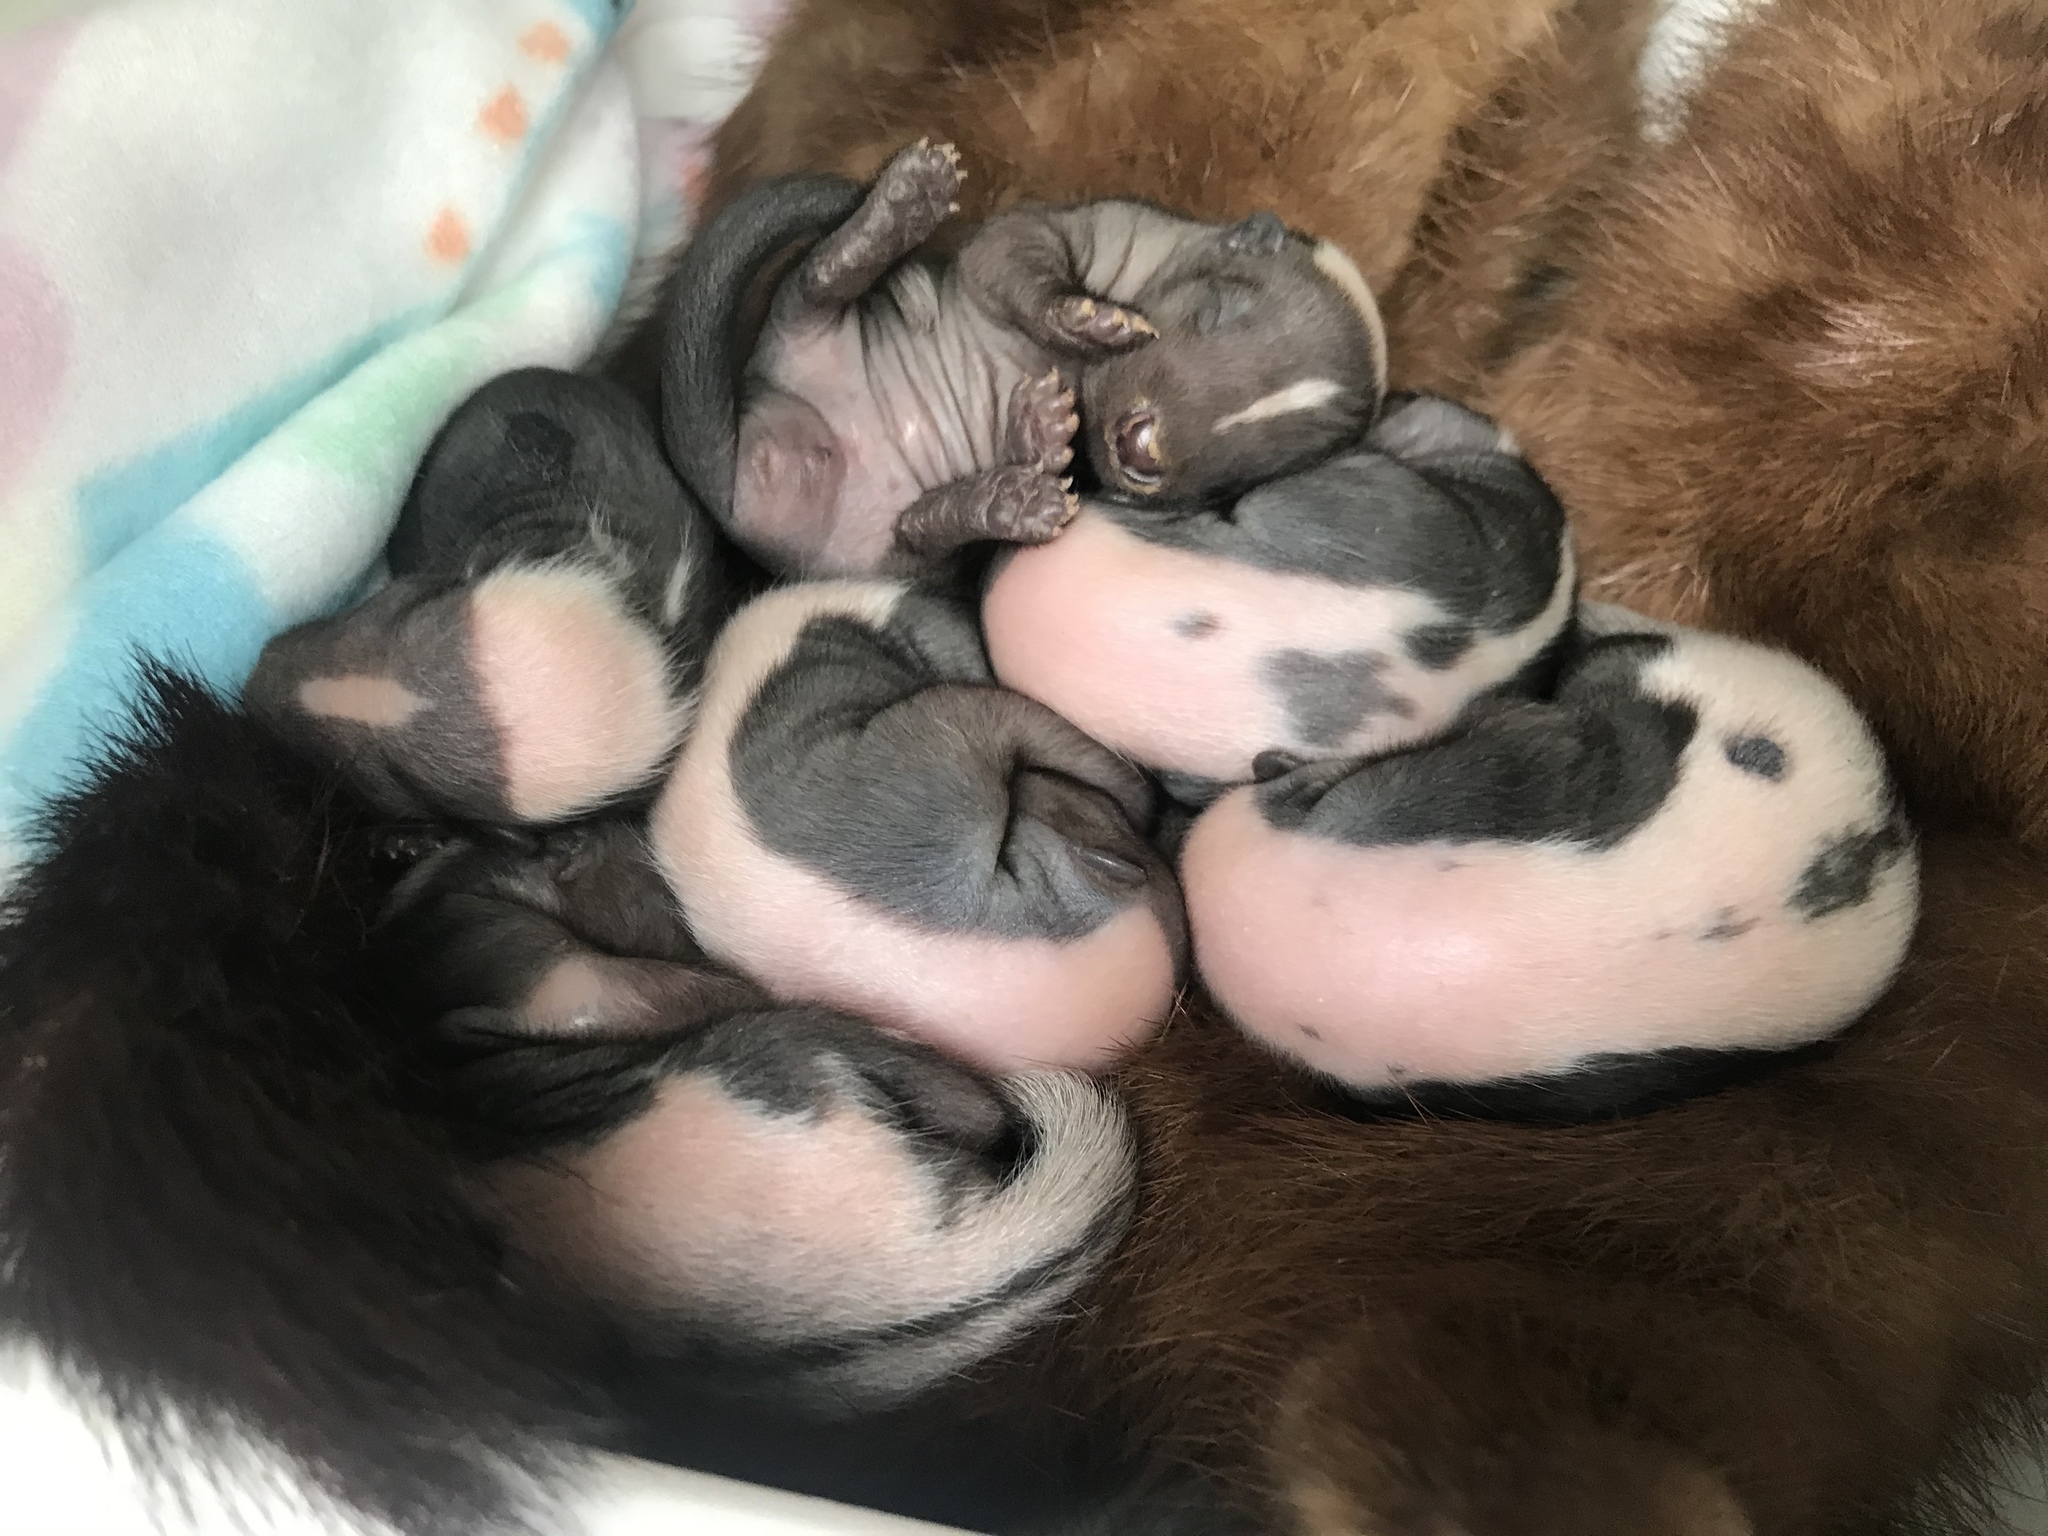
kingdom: Animalia
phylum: Chordata
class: Mammalia
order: Carnivora
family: Mephitidae
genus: Mephitis
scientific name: Mephitis mephitis
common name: Striped skunk
